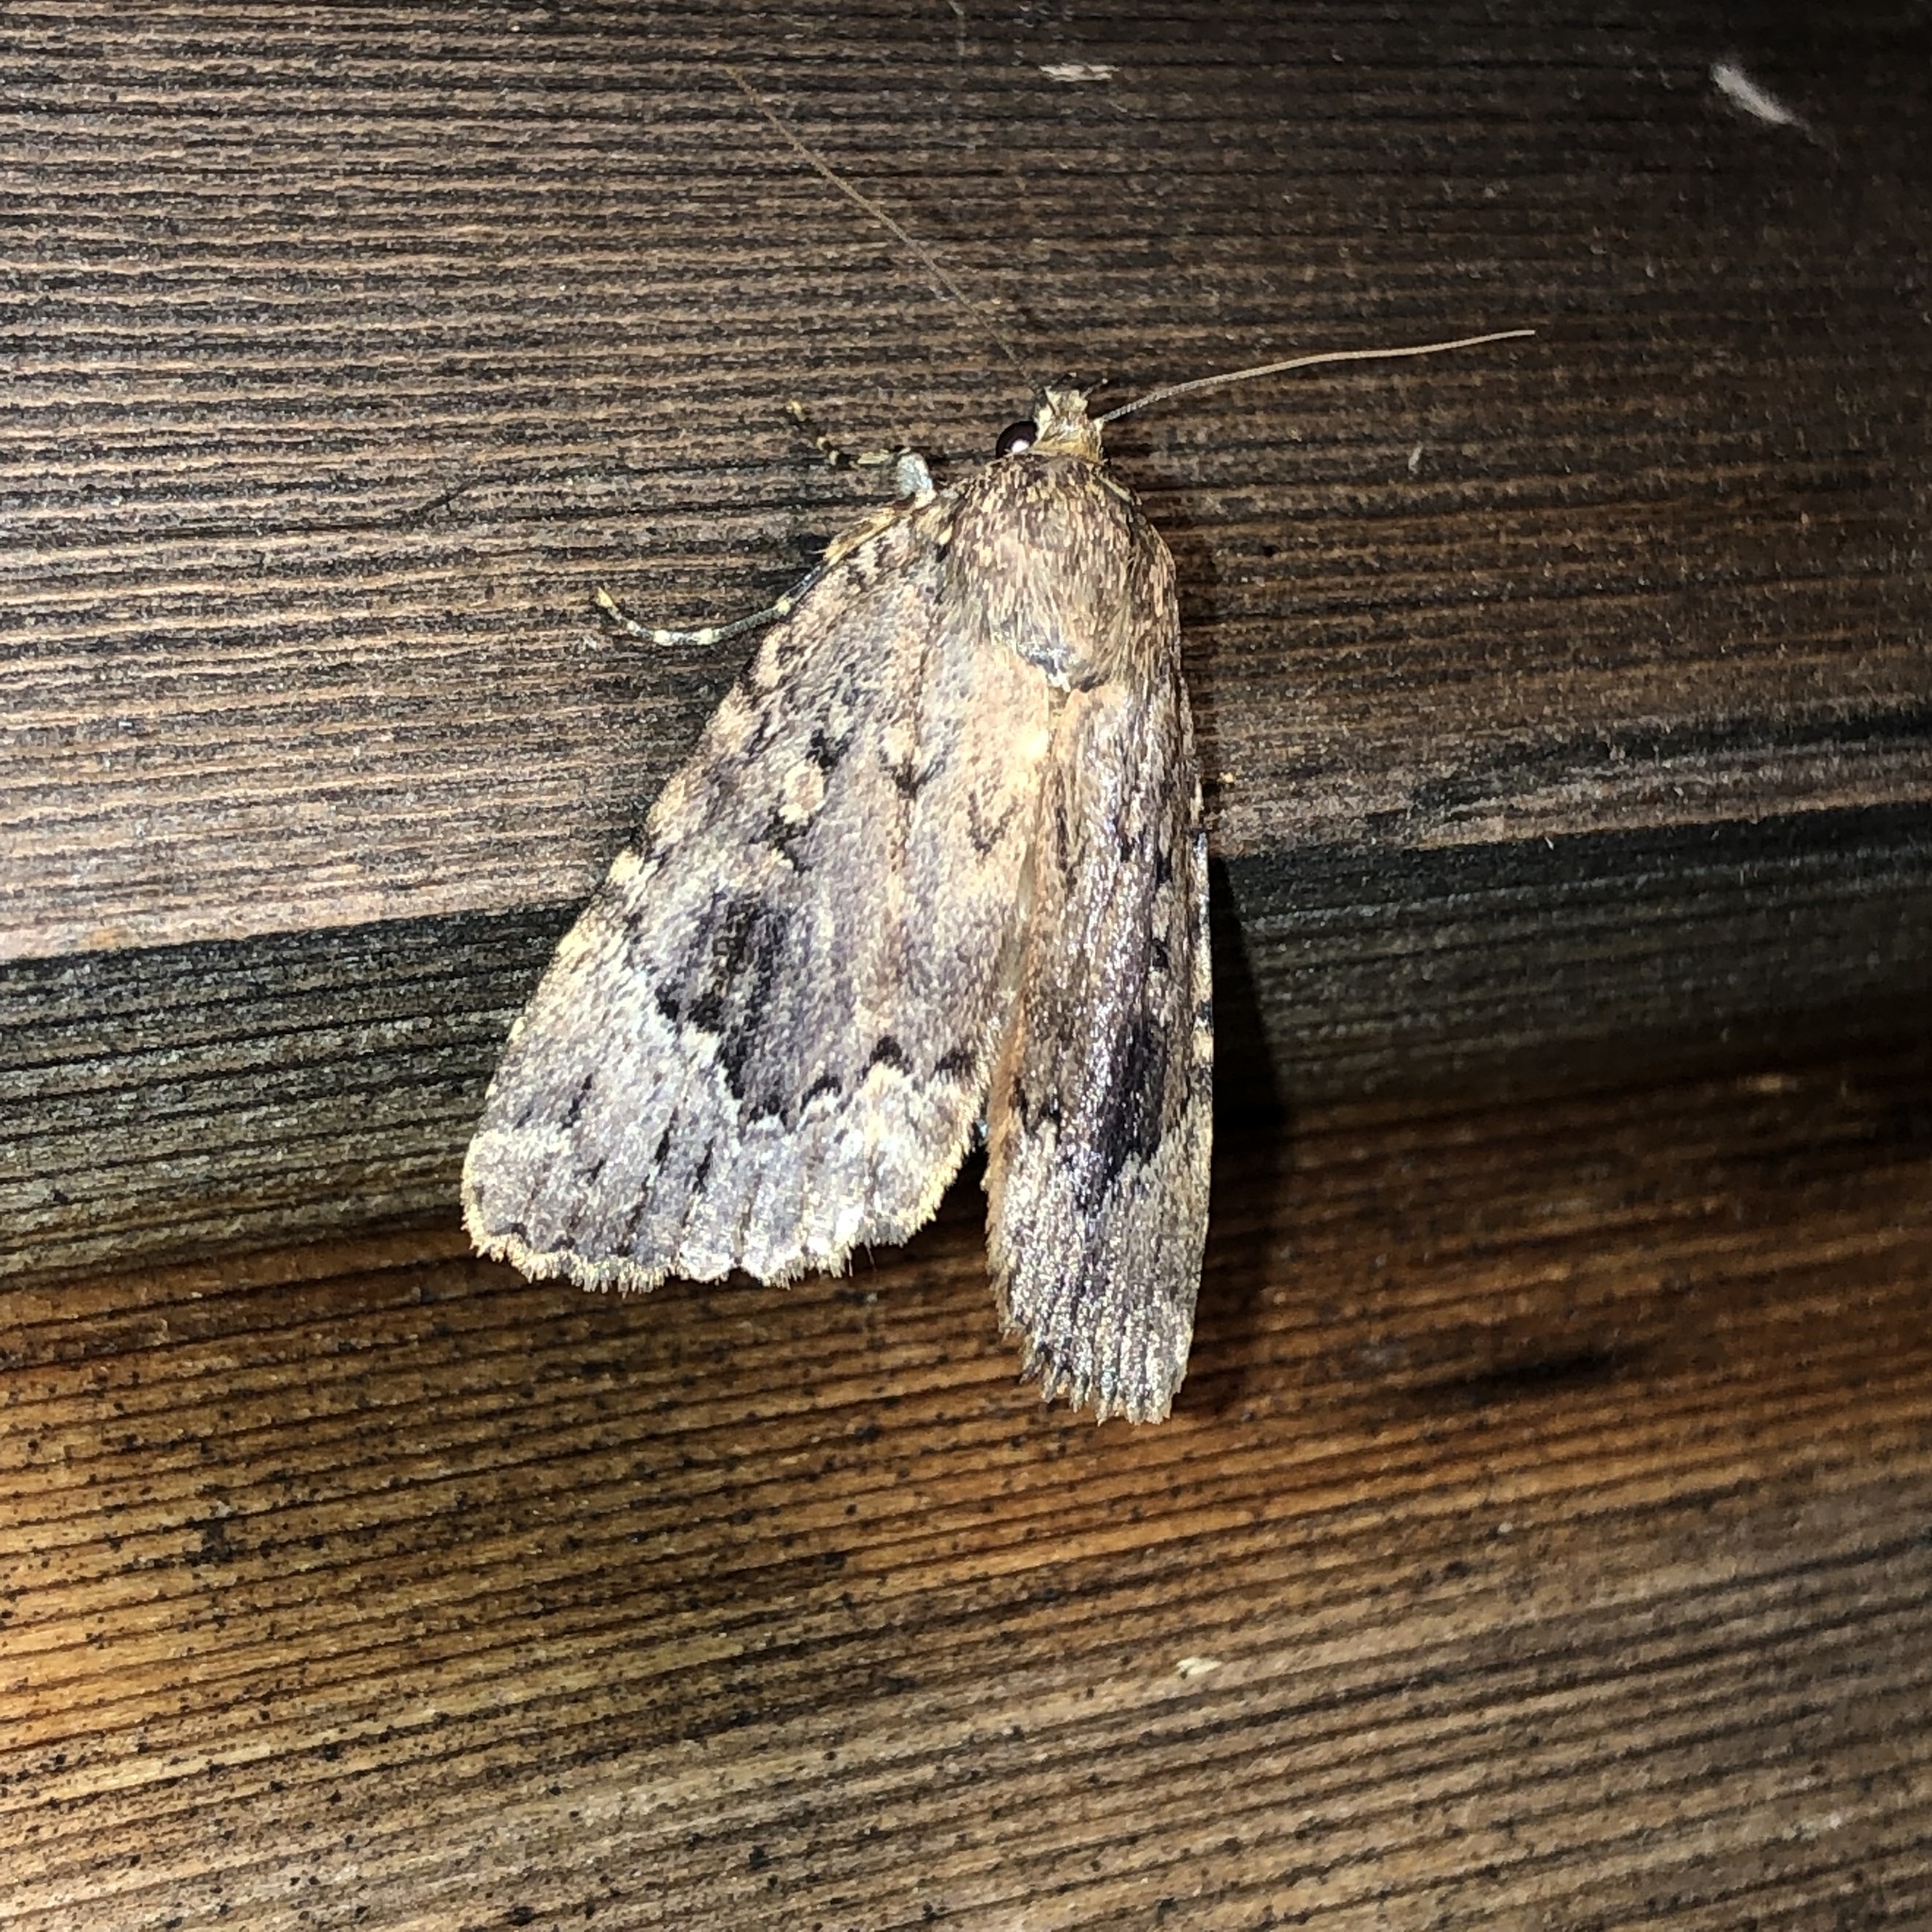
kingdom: Animalia
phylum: Arthropoda
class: Insecta
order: Lepidoptera
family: Noctuidae
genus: Amphipyra
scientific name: Amphipyra pyramidoides
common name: American copper underwing
